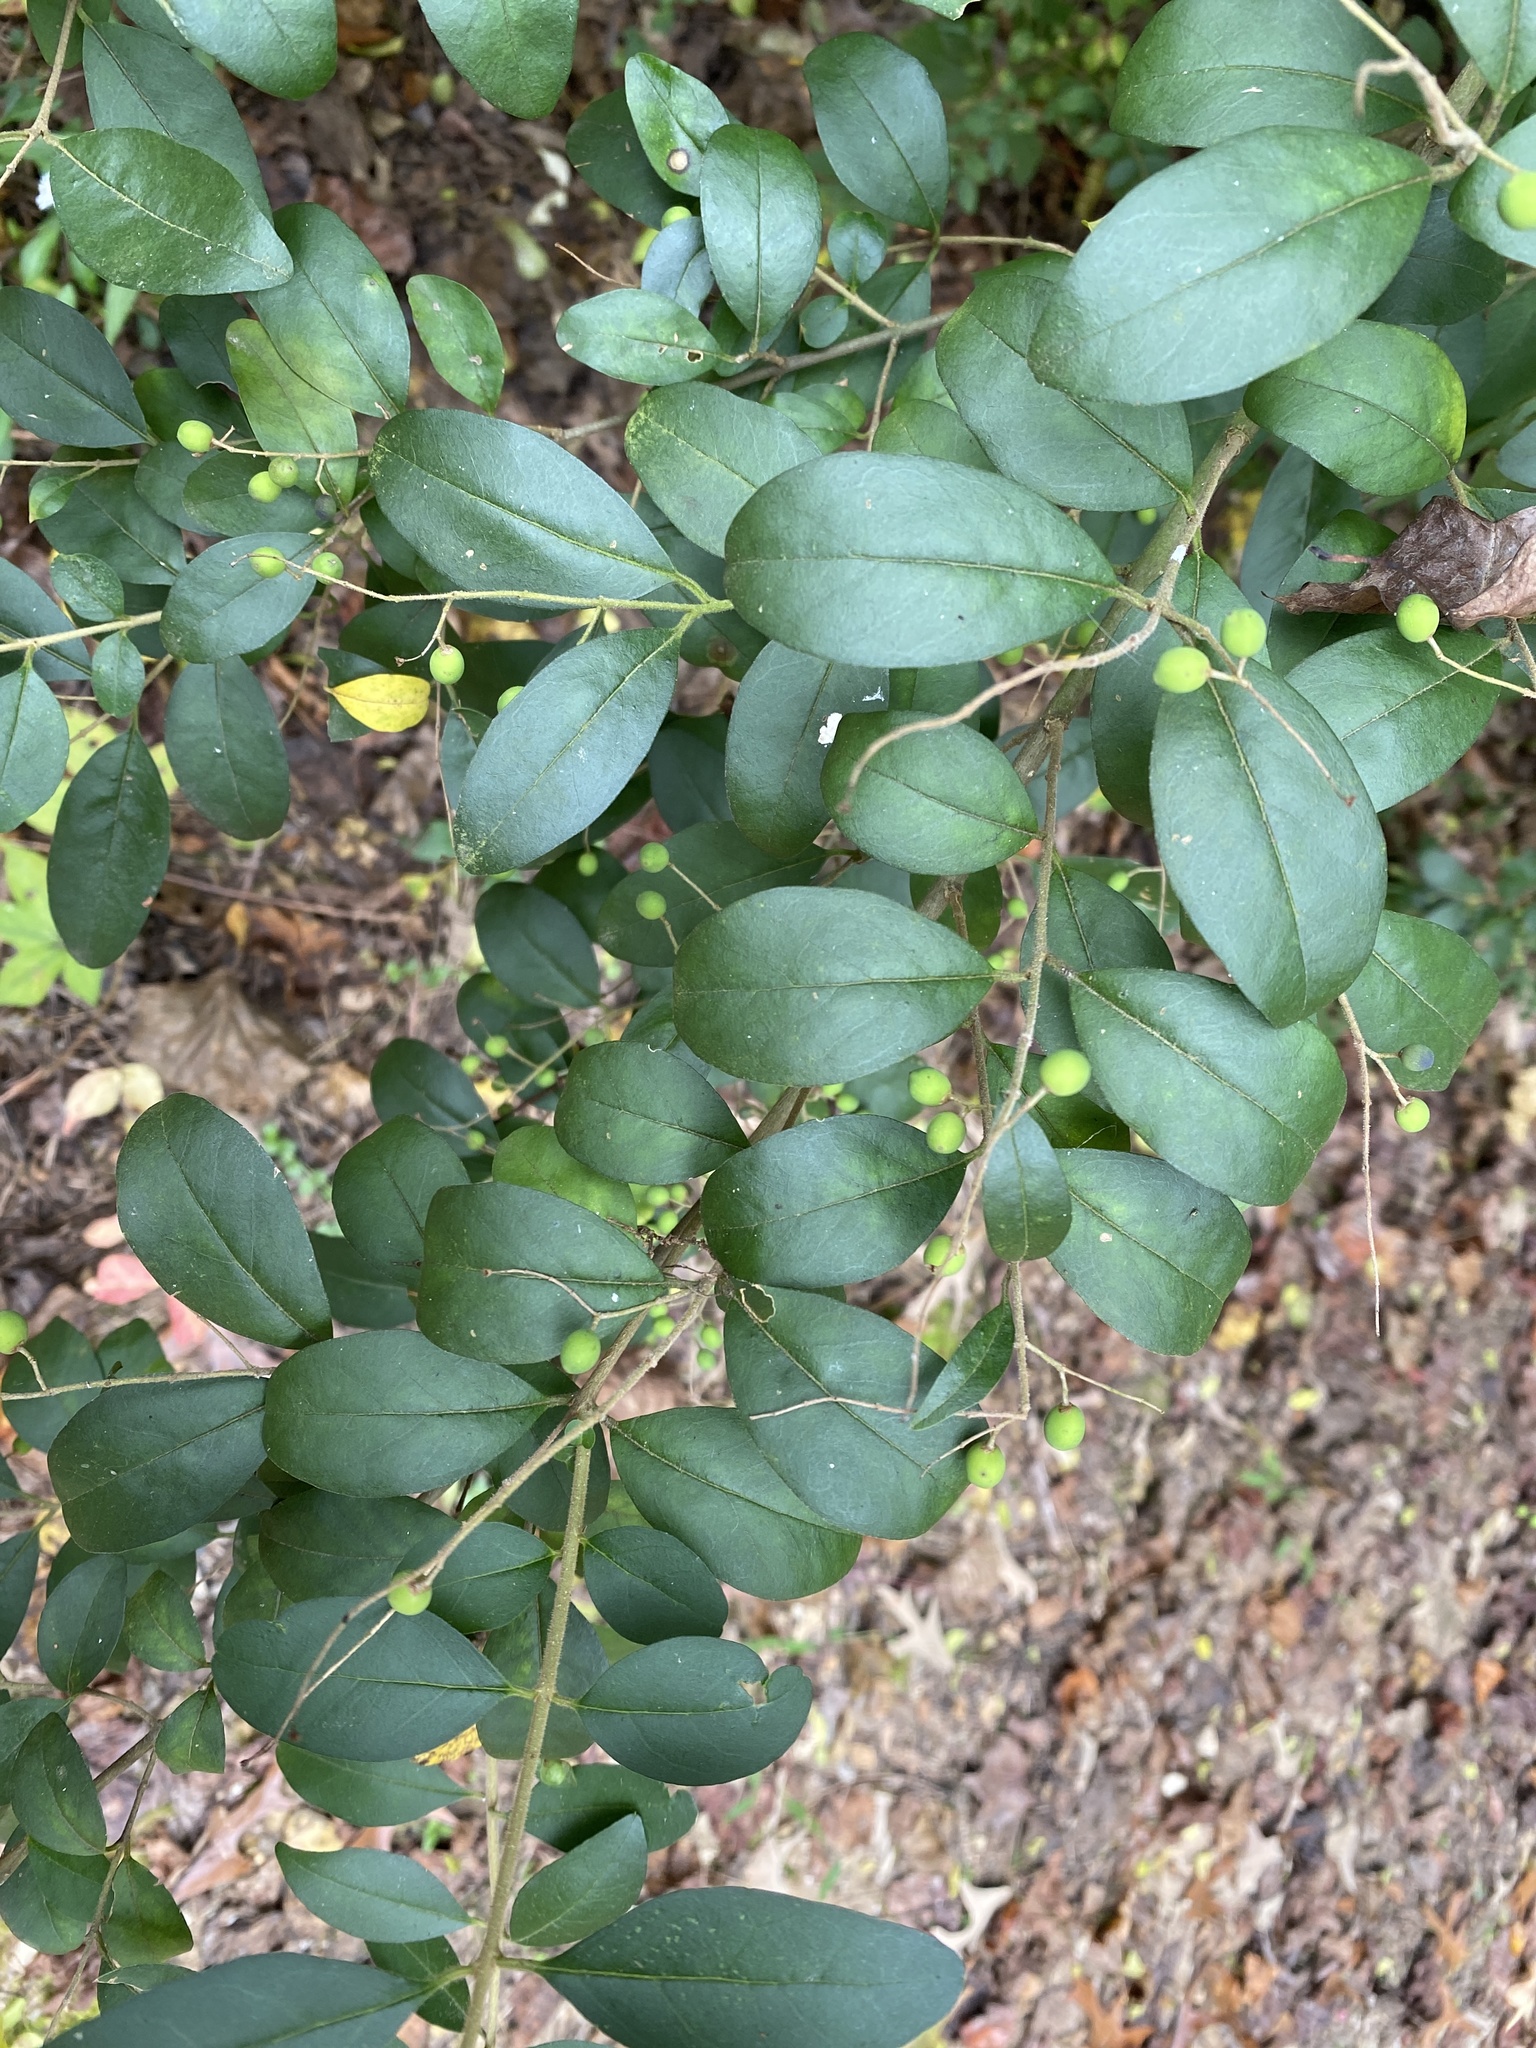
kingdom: Plantae
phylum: Tracheophyta
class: Magnoliopsida
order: Lamiales
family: Oleaceae
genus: Ligustrum
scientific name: Ligustrum sinense
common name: Chinese privet
